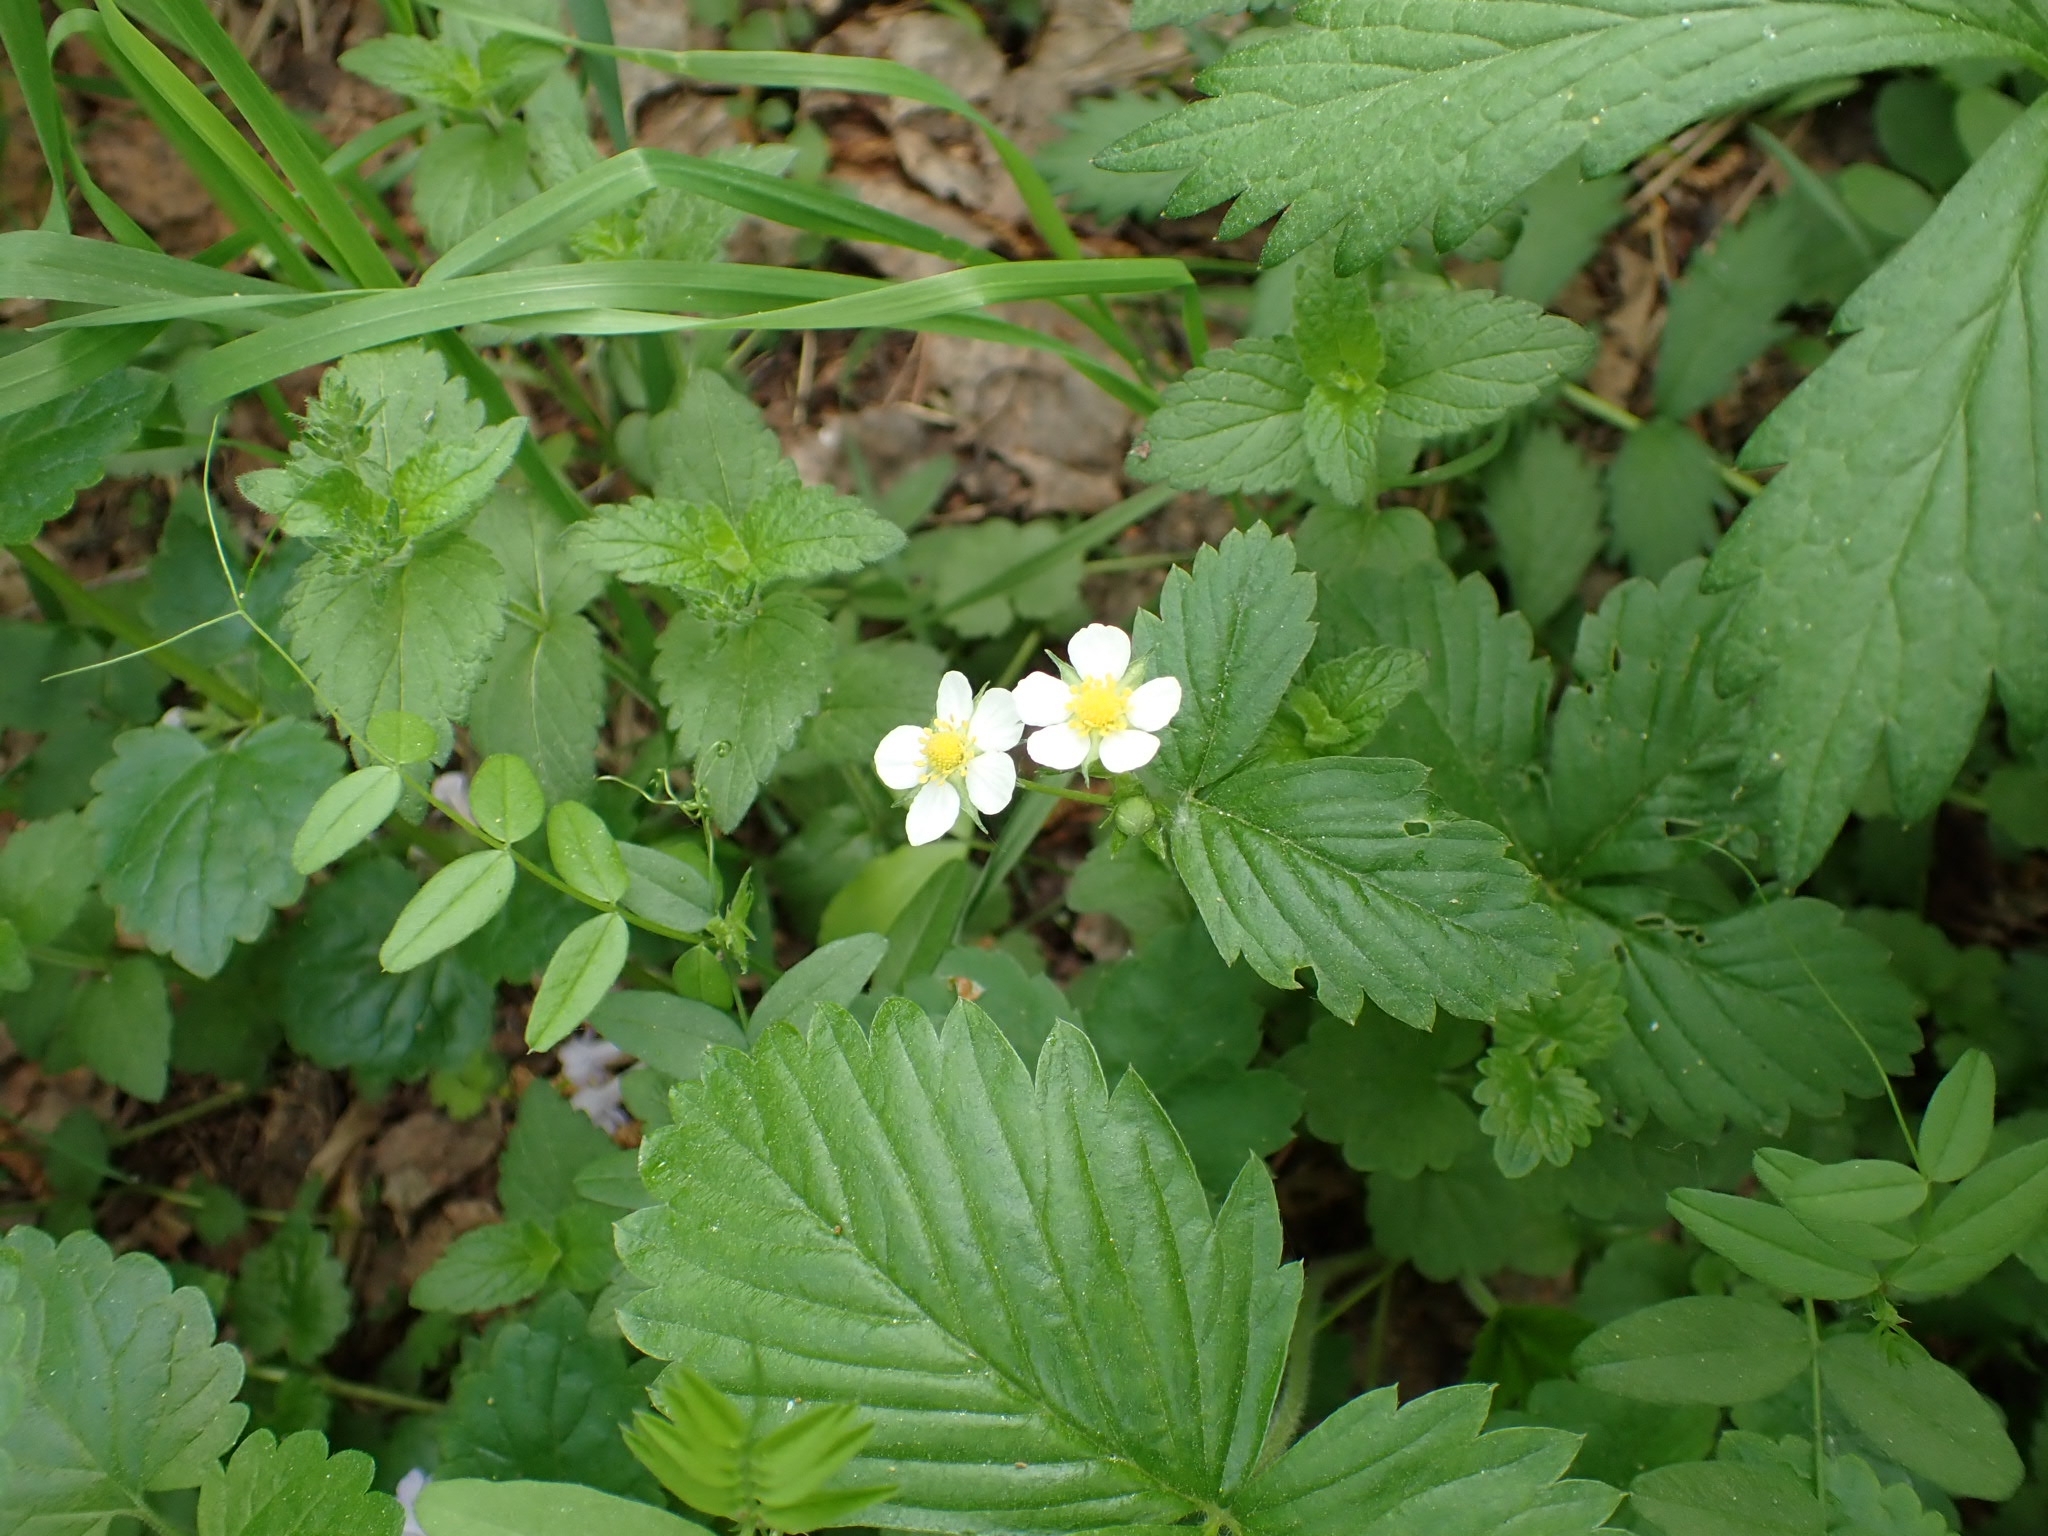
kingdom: Plantae
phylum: Tracheophyta
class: Magnoliopsida
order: Rosales
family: Rosaceae
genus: Fragaria
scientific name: Fragaria vesca
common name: Wild strawberry
